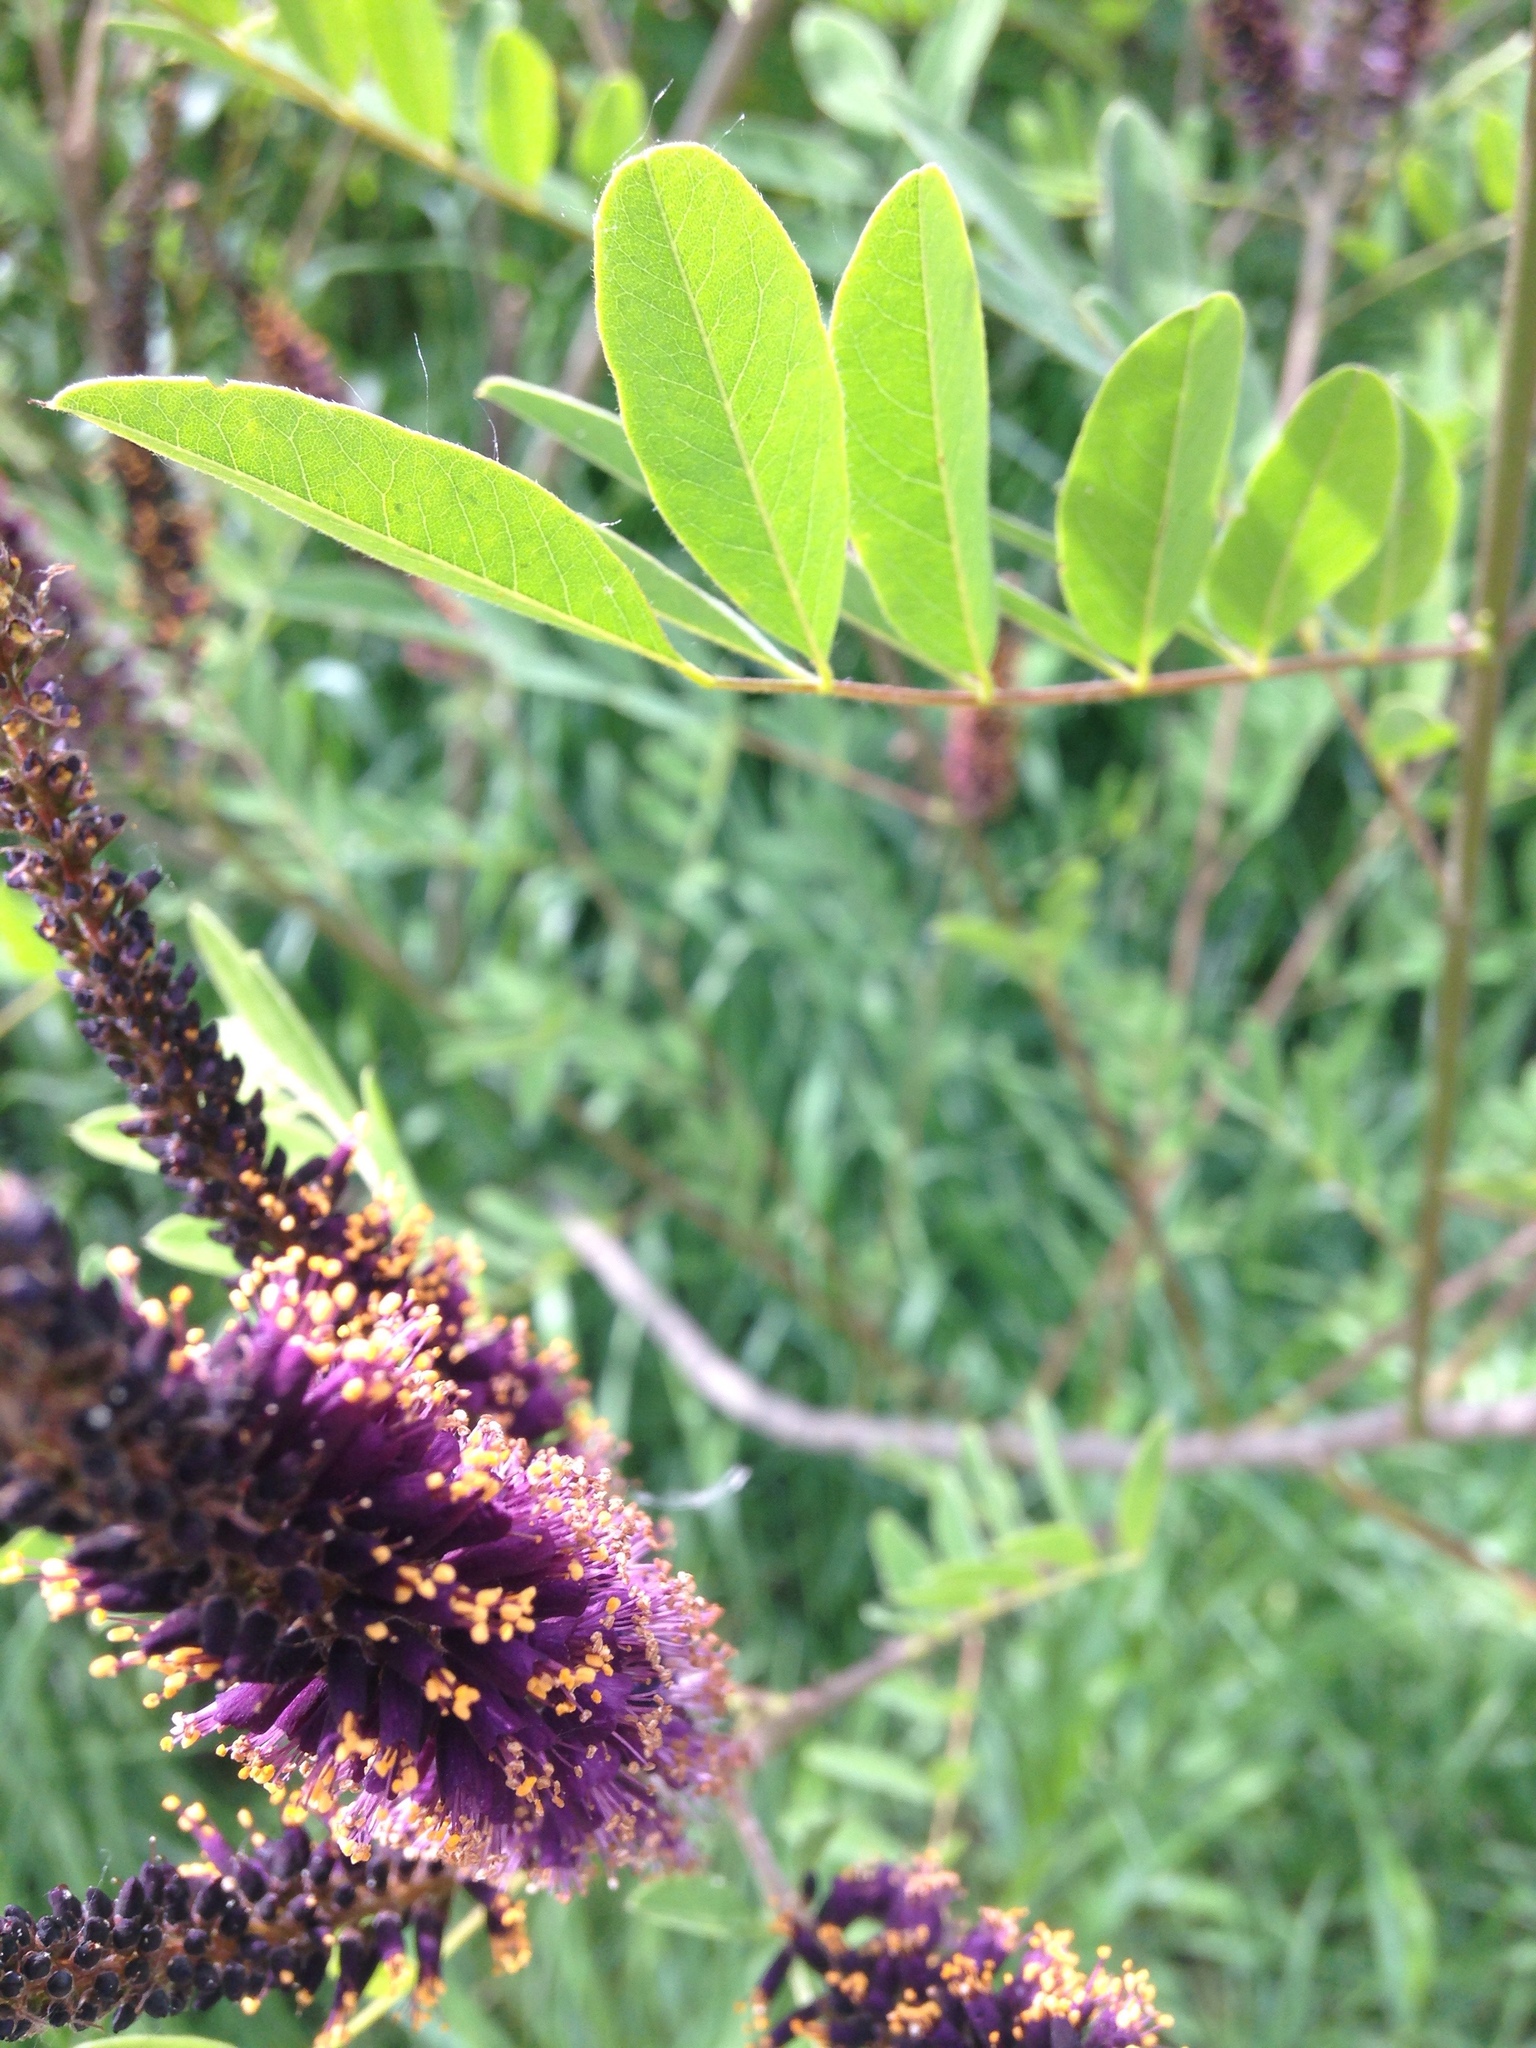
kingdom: Plantae
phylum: Tracheophyta
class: Magnoliopsida
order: Fabales
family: Fabaceae
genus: Amorpha
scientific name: Amorpha fruticosa
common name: False indigo
